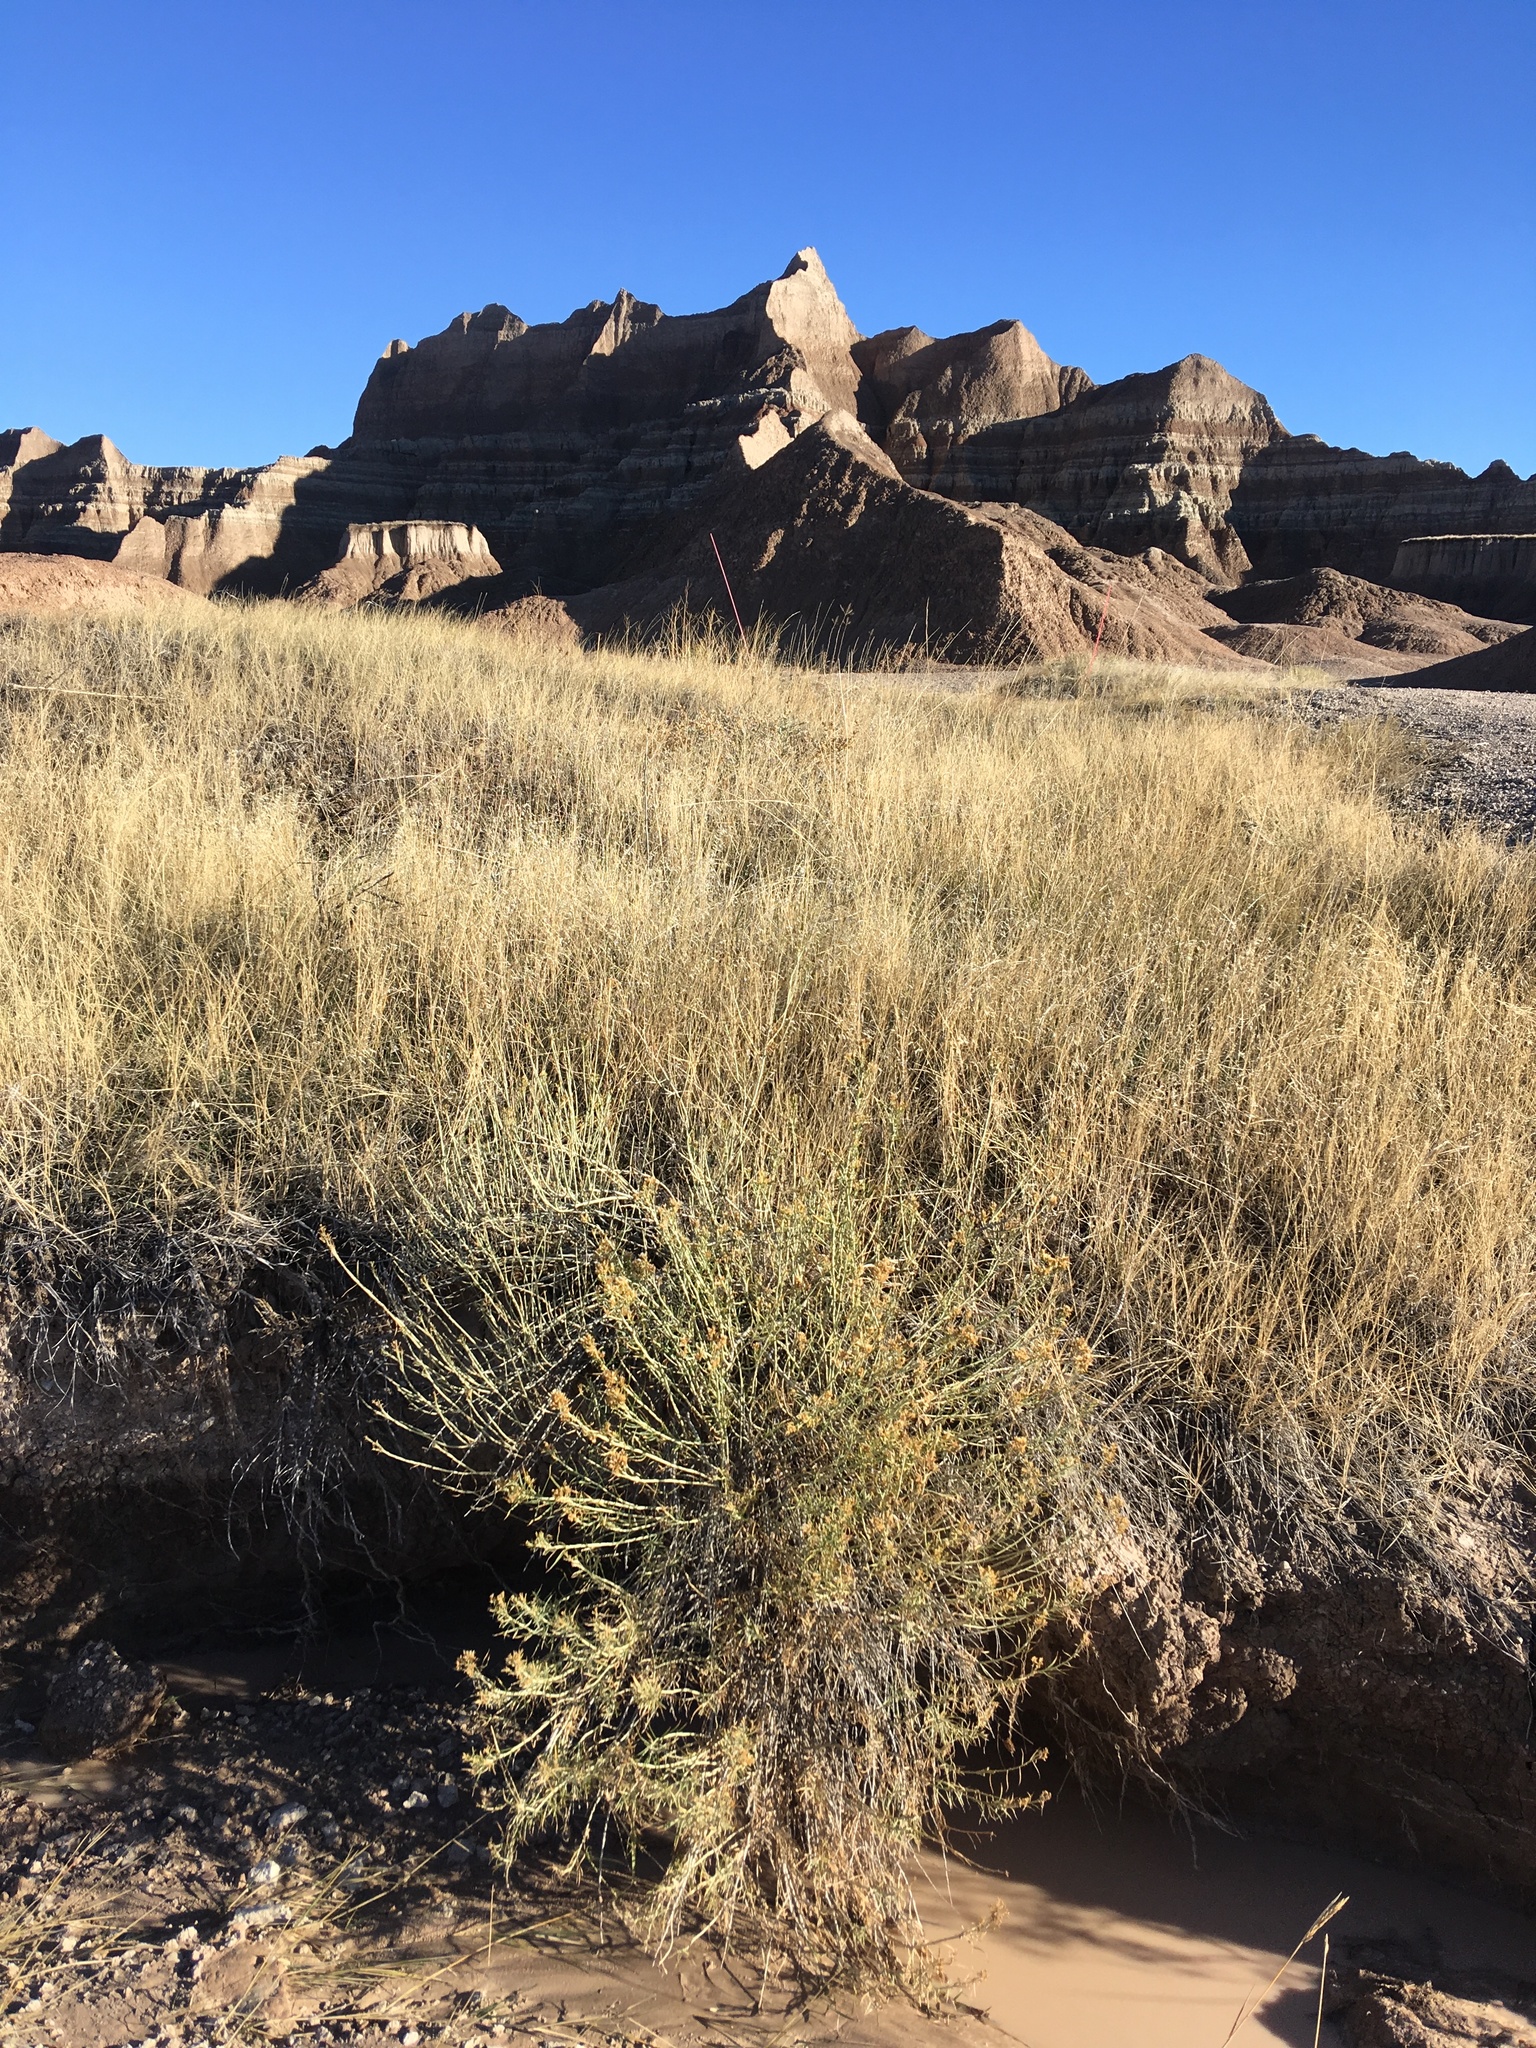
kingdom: Plantae
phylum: Tracheophyta
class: Magnoliopsida
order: Asterales
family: Asteraceae
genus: Ericameria
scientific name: Ericameria nauseosa
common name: Rubber rabbitbrush
